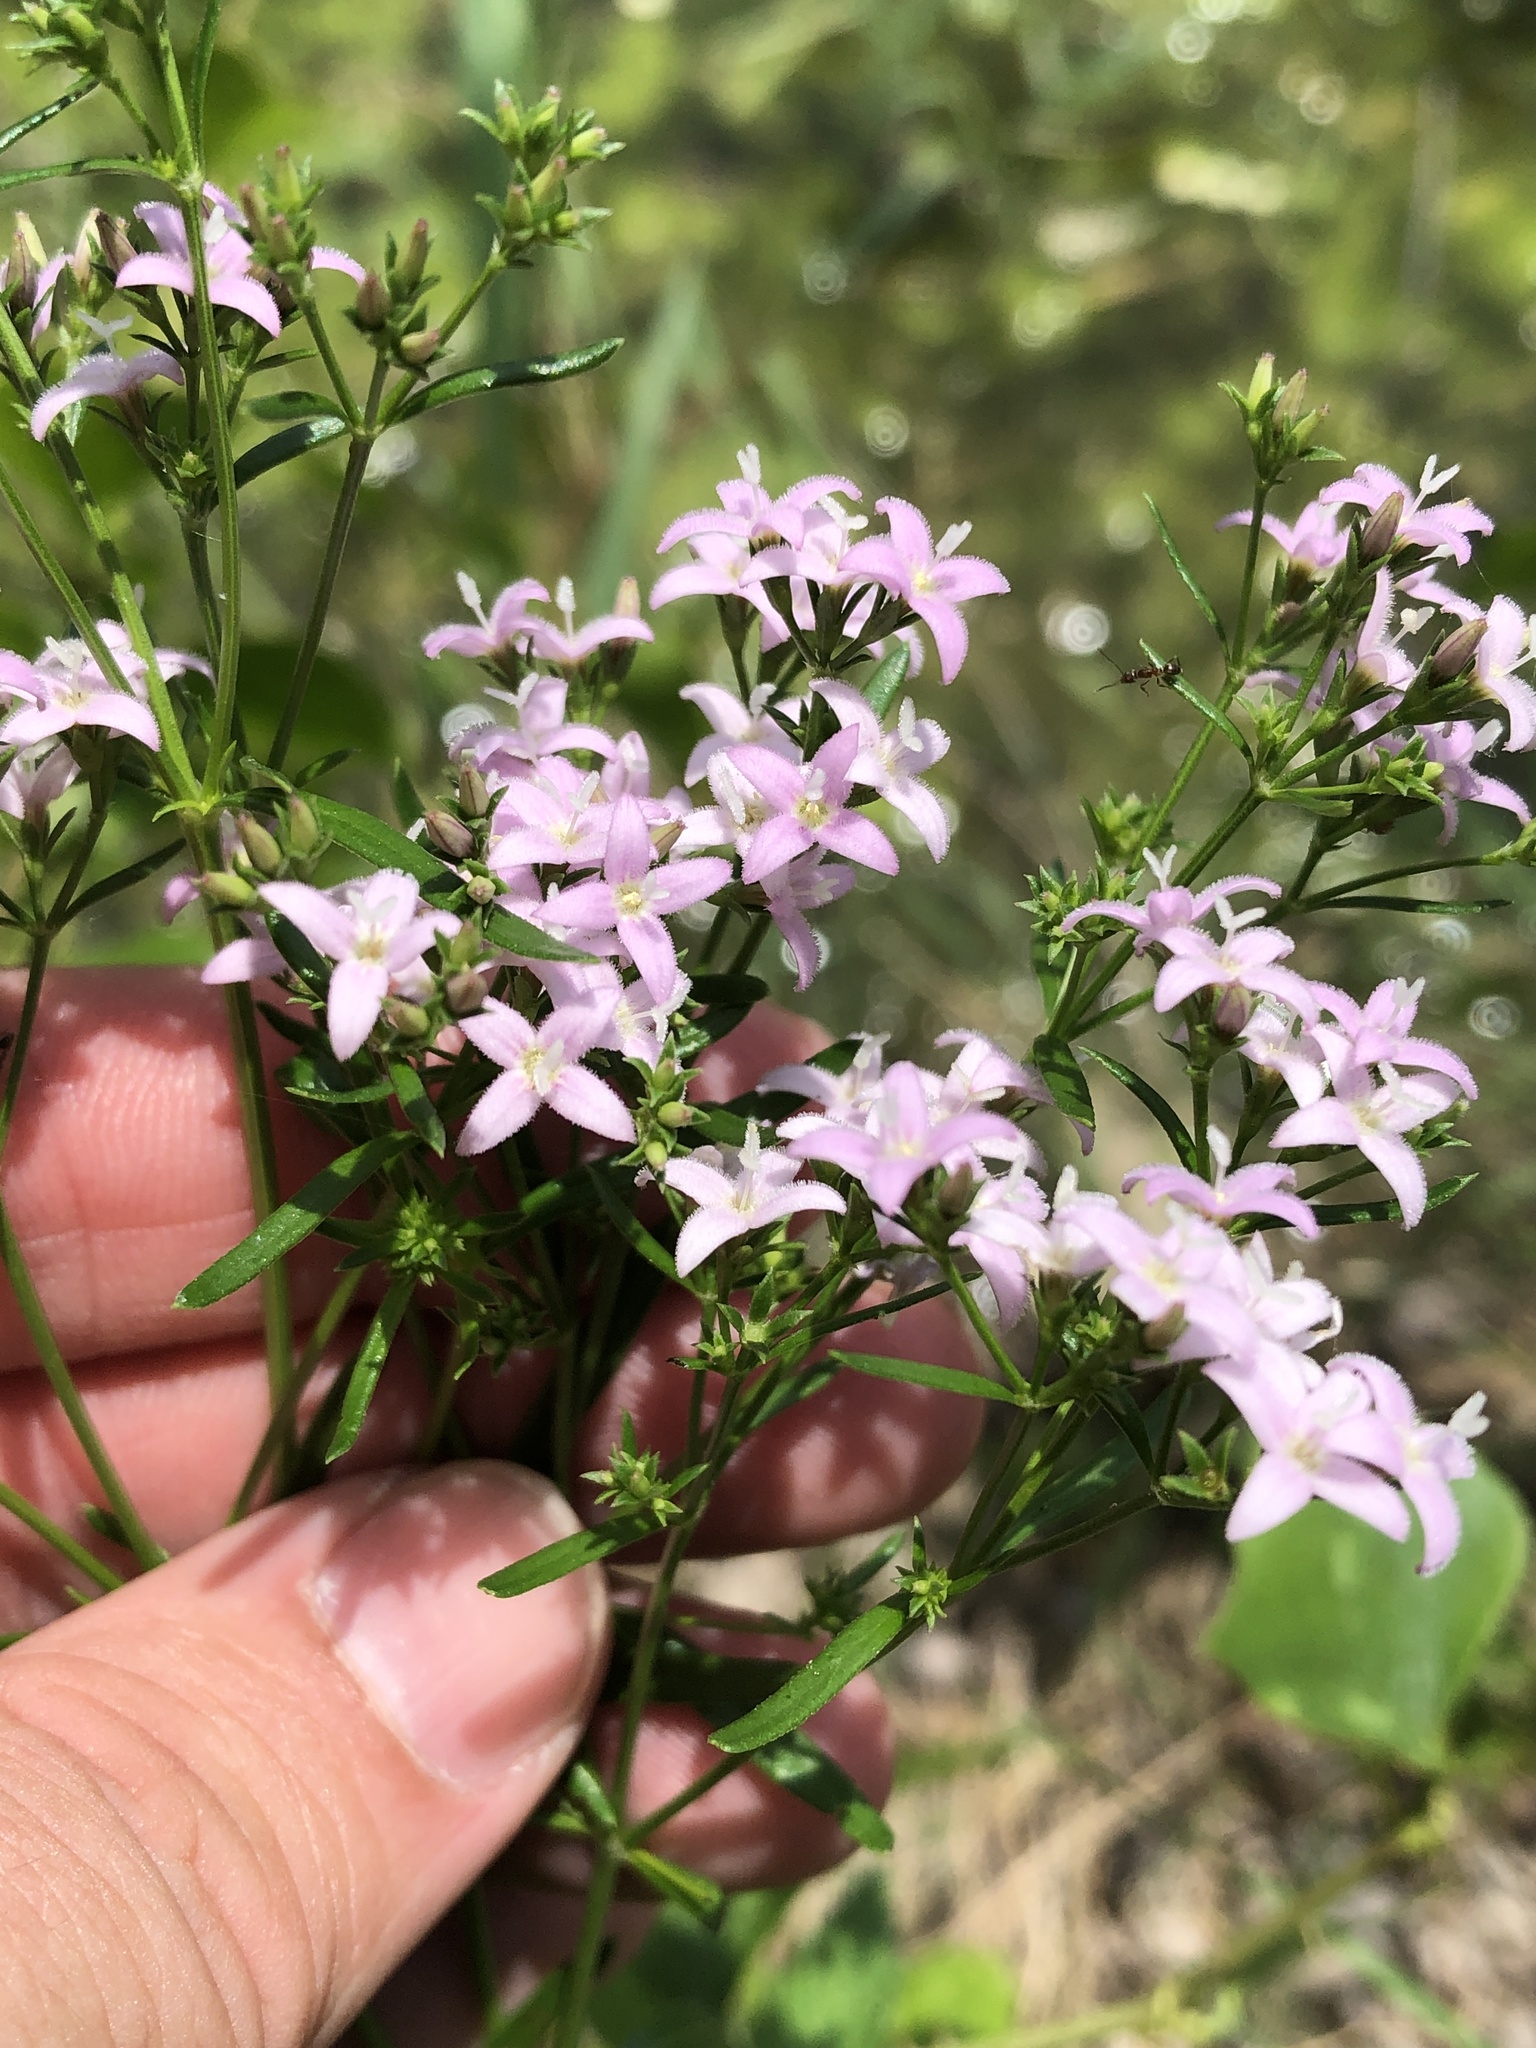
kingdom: Plantae
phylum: Tracheophyta
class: Magnoliopsida
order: Gentianales
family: Rubiaceae
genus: Stenaria
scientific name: Stenaria nigricans
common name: Diamondflowers
